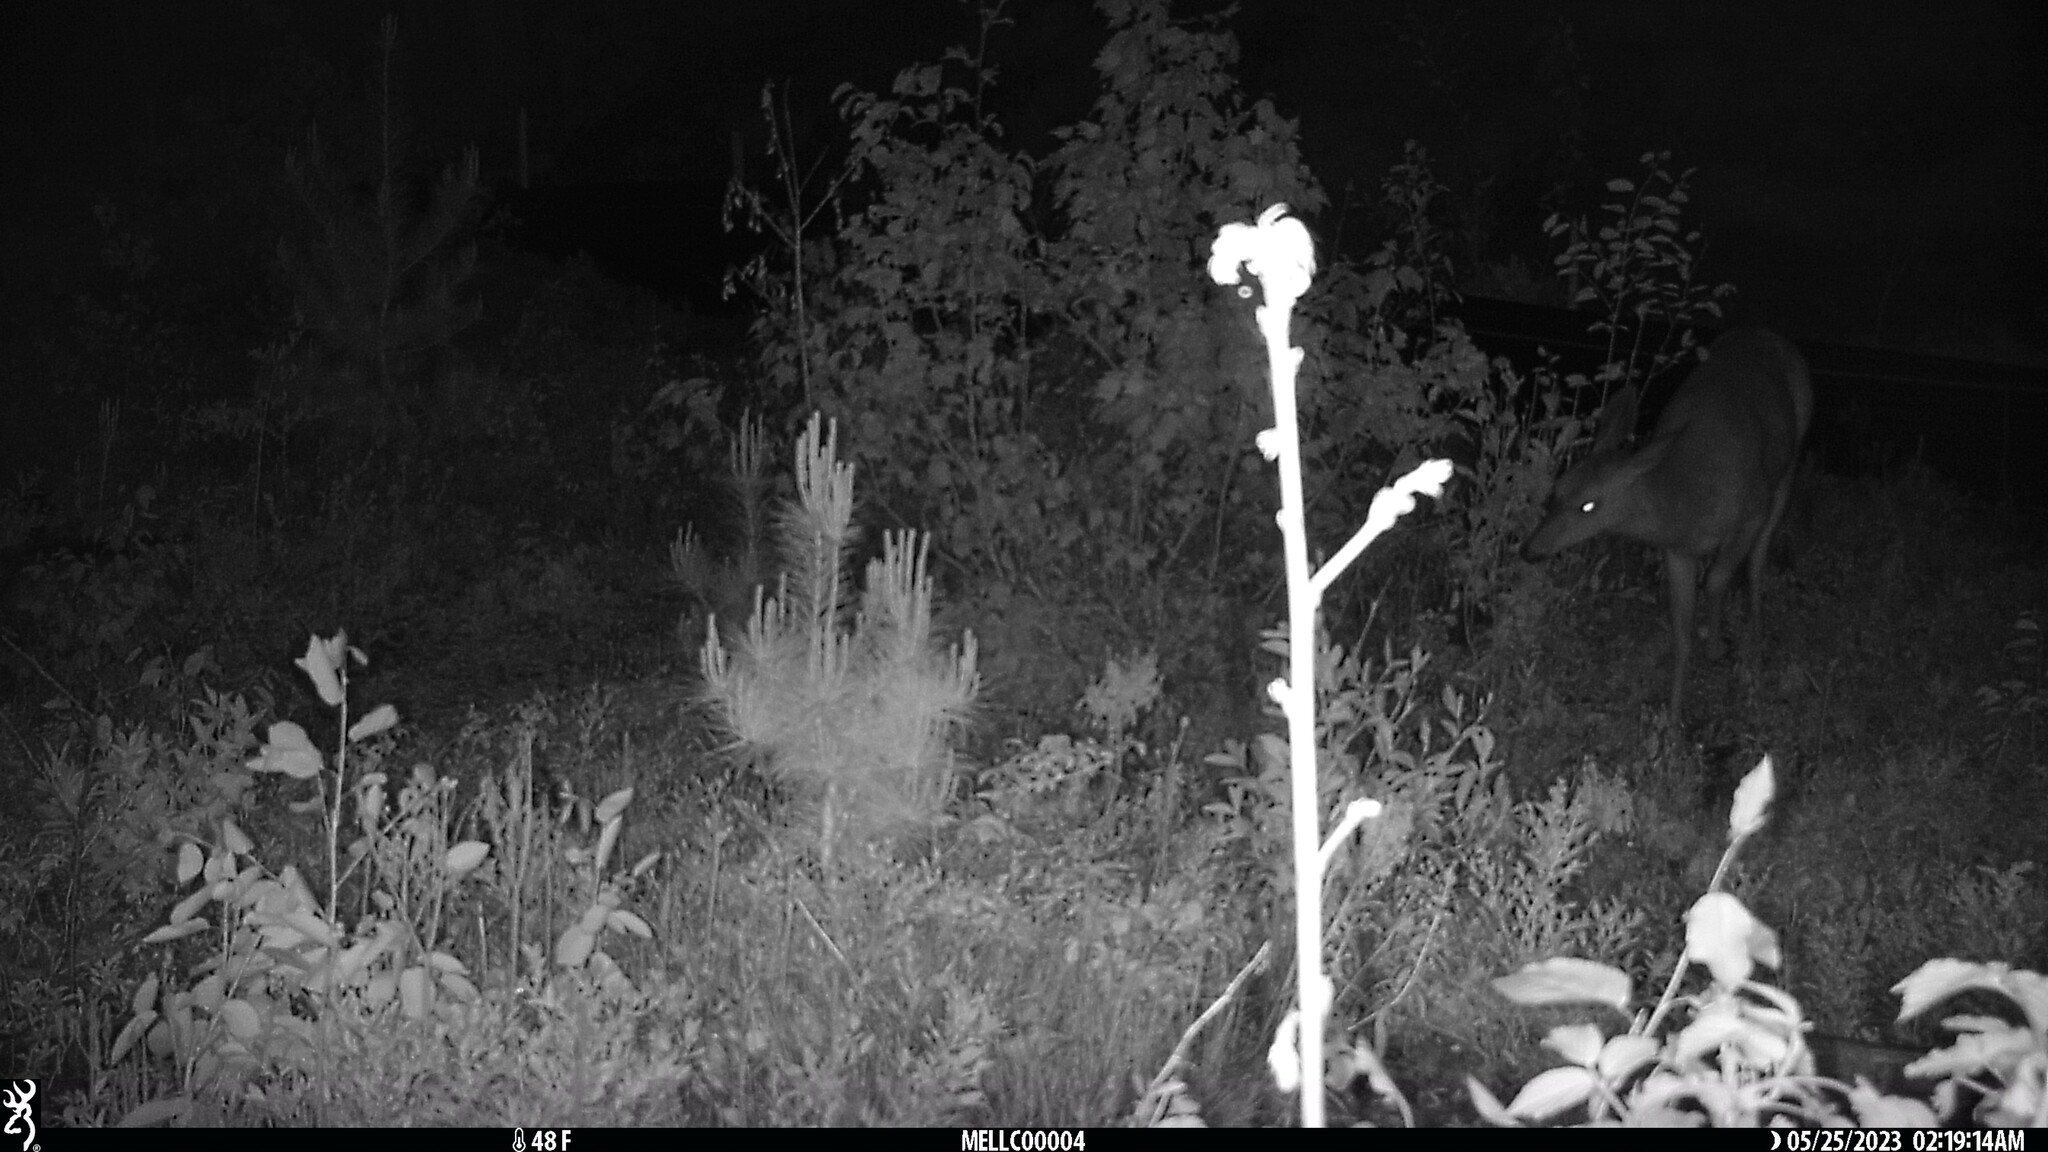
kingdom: Animalia
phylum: Chordata
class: Mammalia
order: Artiodactyla
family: Cervidae
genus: Odocoileus
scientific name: Odocoileus virginianus
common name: White-tailed deer
